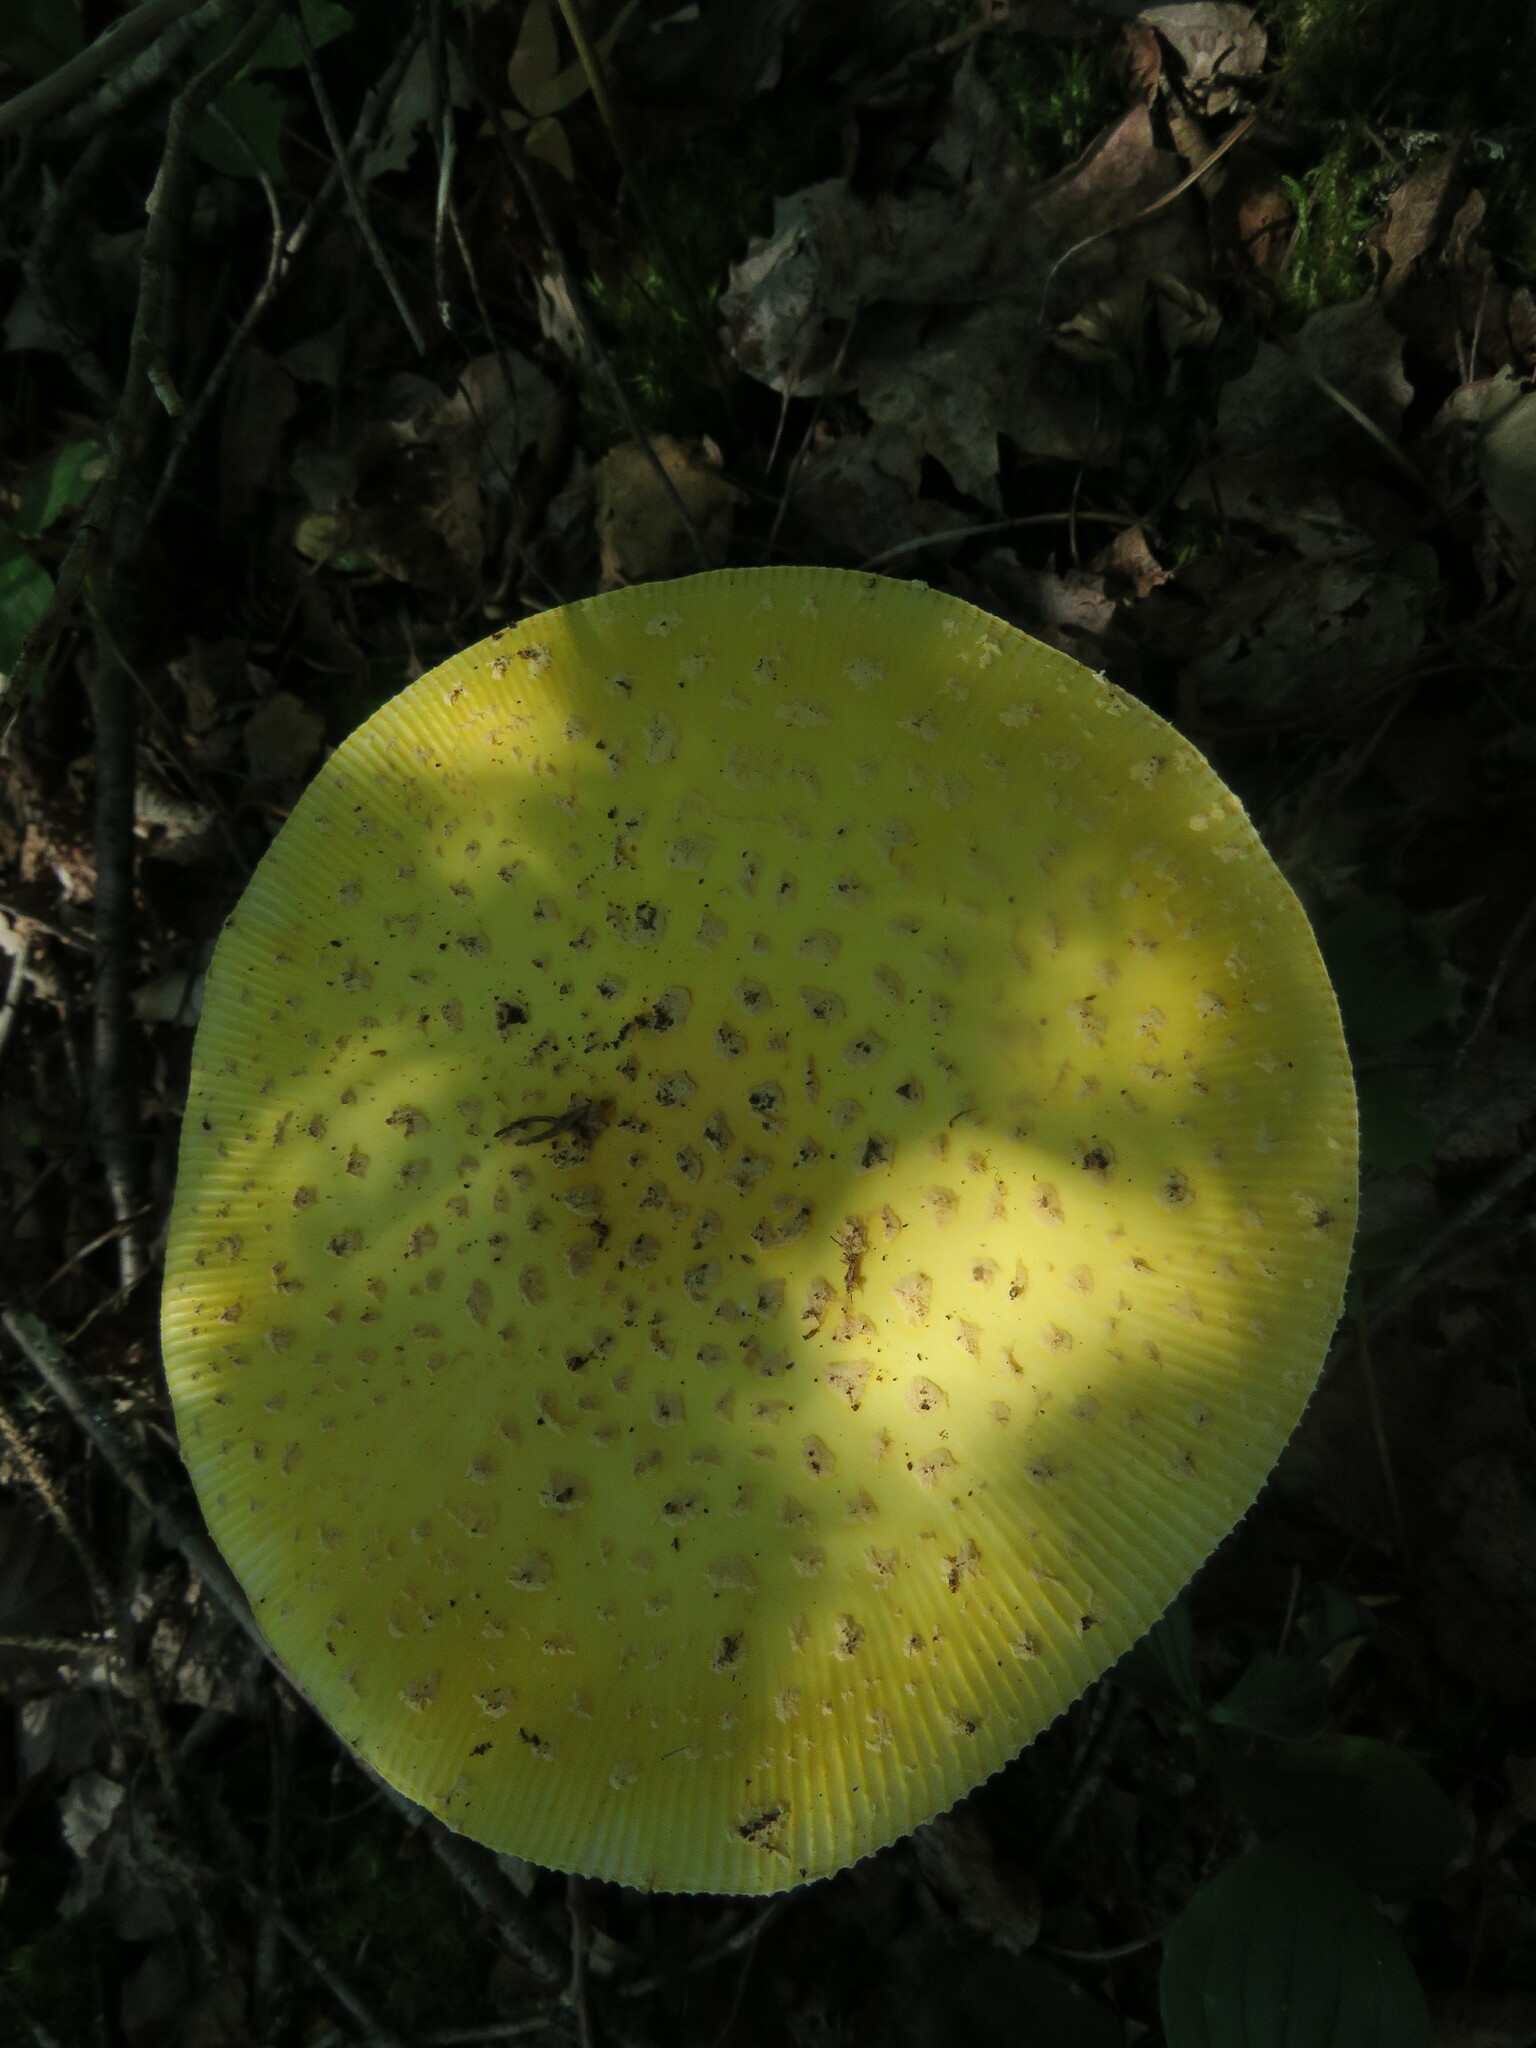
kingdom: Fungi
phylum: Basidiomycota
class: Agaricomycetes
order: Agaricales
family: Amanitaceae
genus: Amanita
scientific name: Amanita muscaria
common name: Fly agaric
